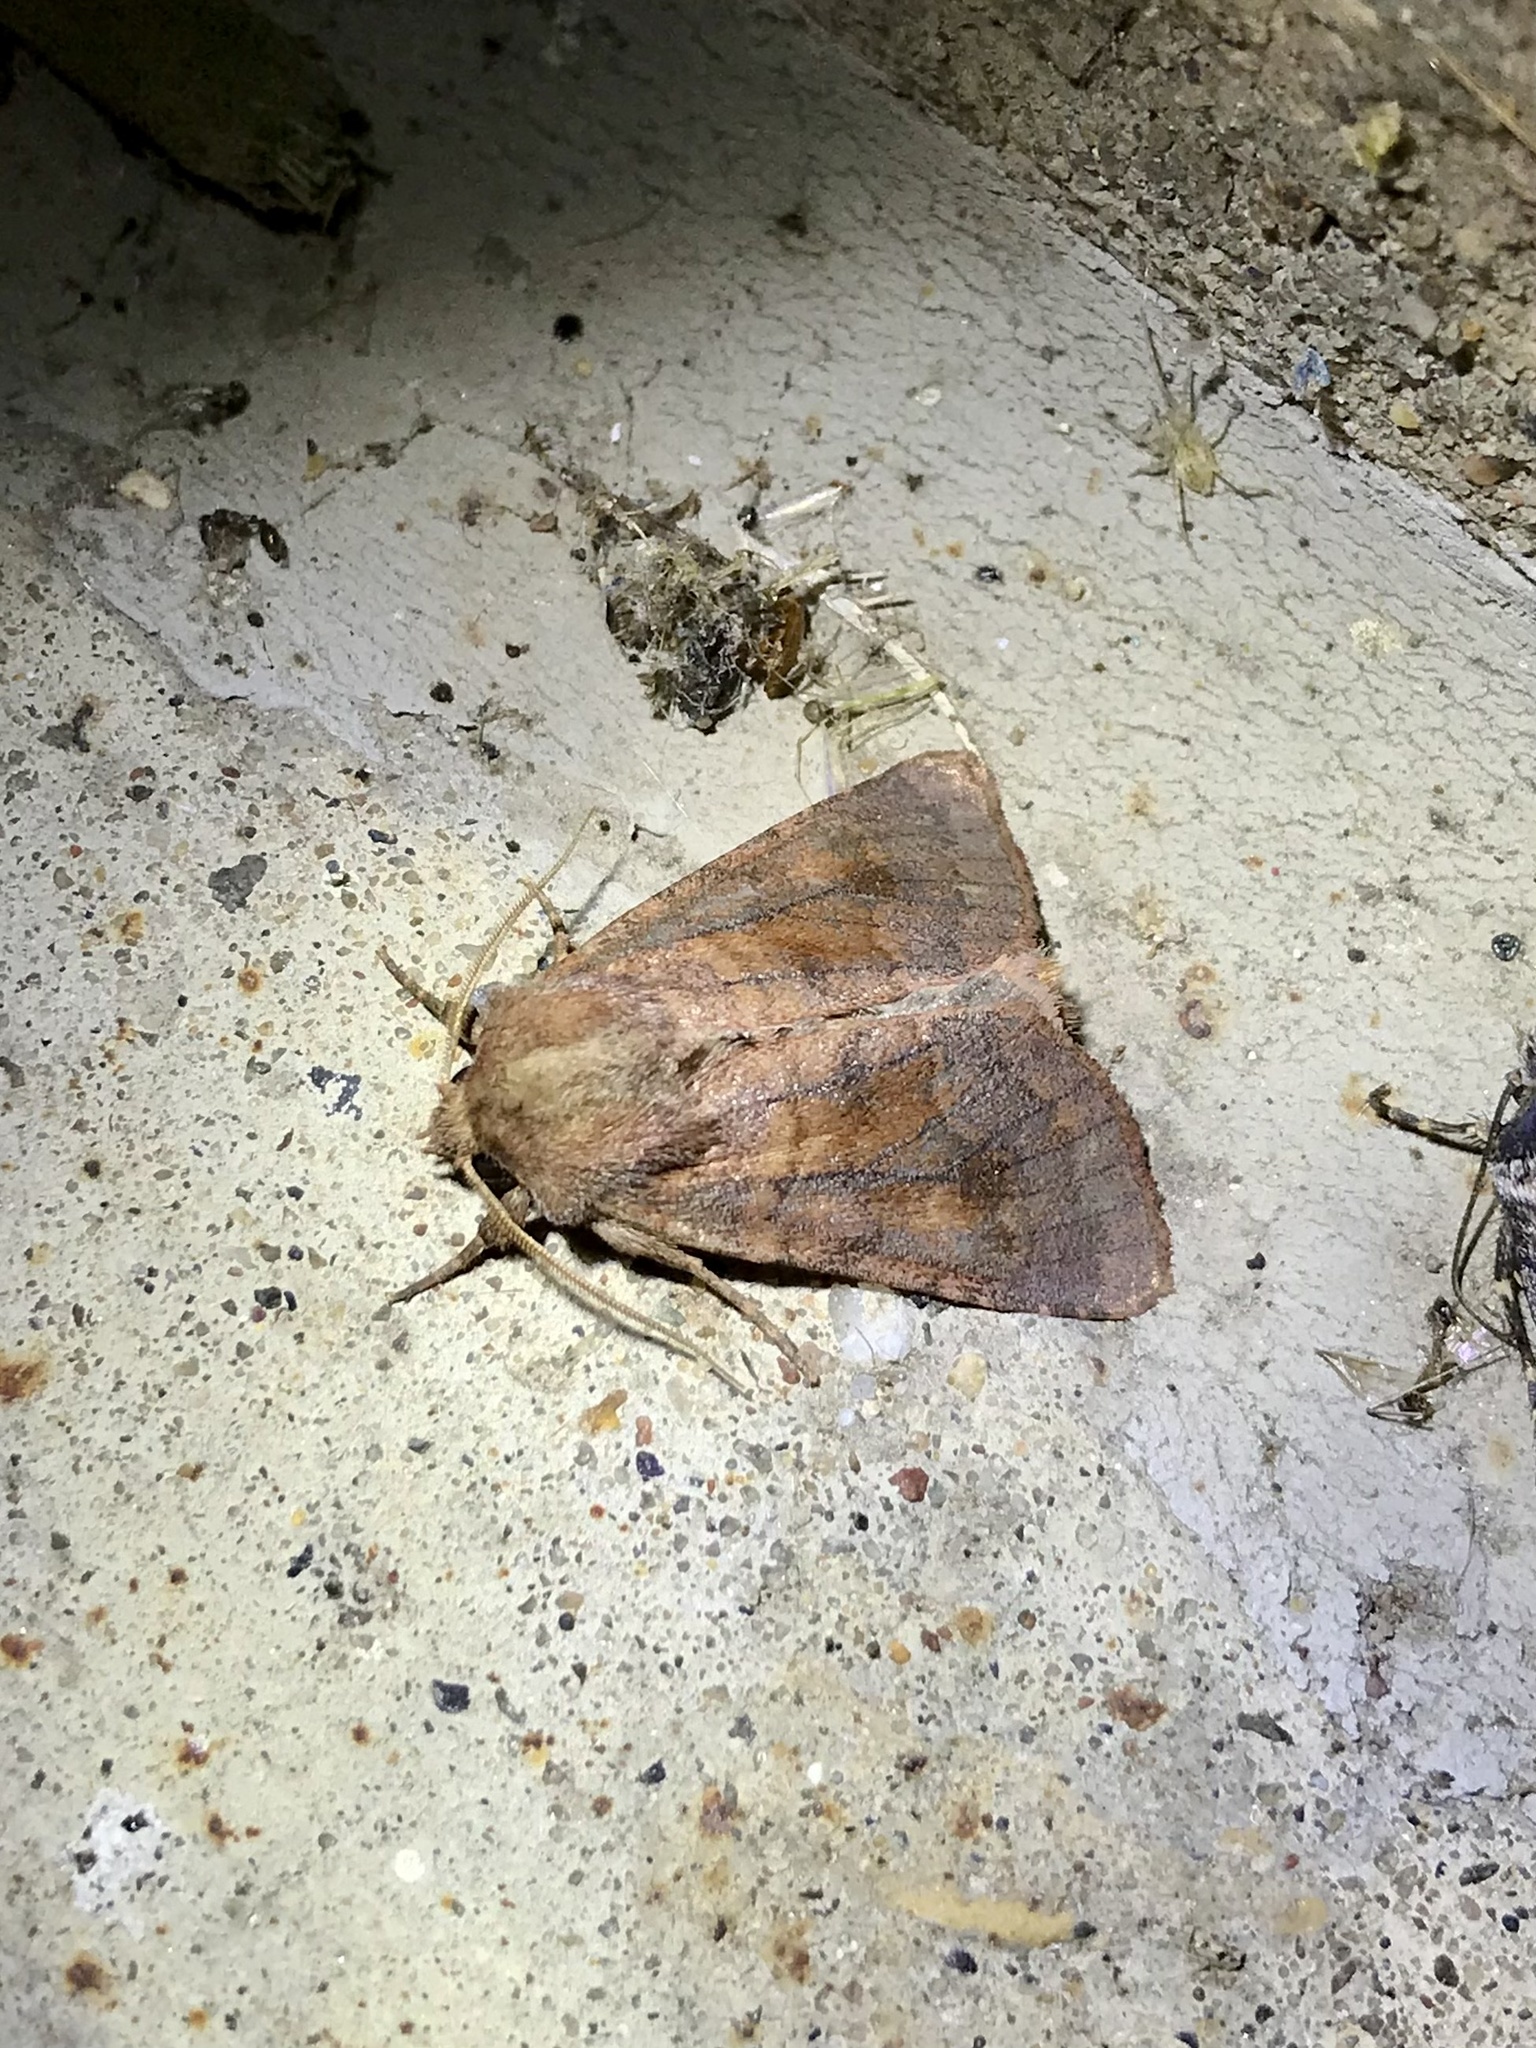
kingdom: Animalia
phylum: Arthropoda
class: Insecta
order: Lepidoptera
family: Noctuidae
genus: Nephelodes
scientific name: Nephelodes minians
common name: Bronzed cutworm
